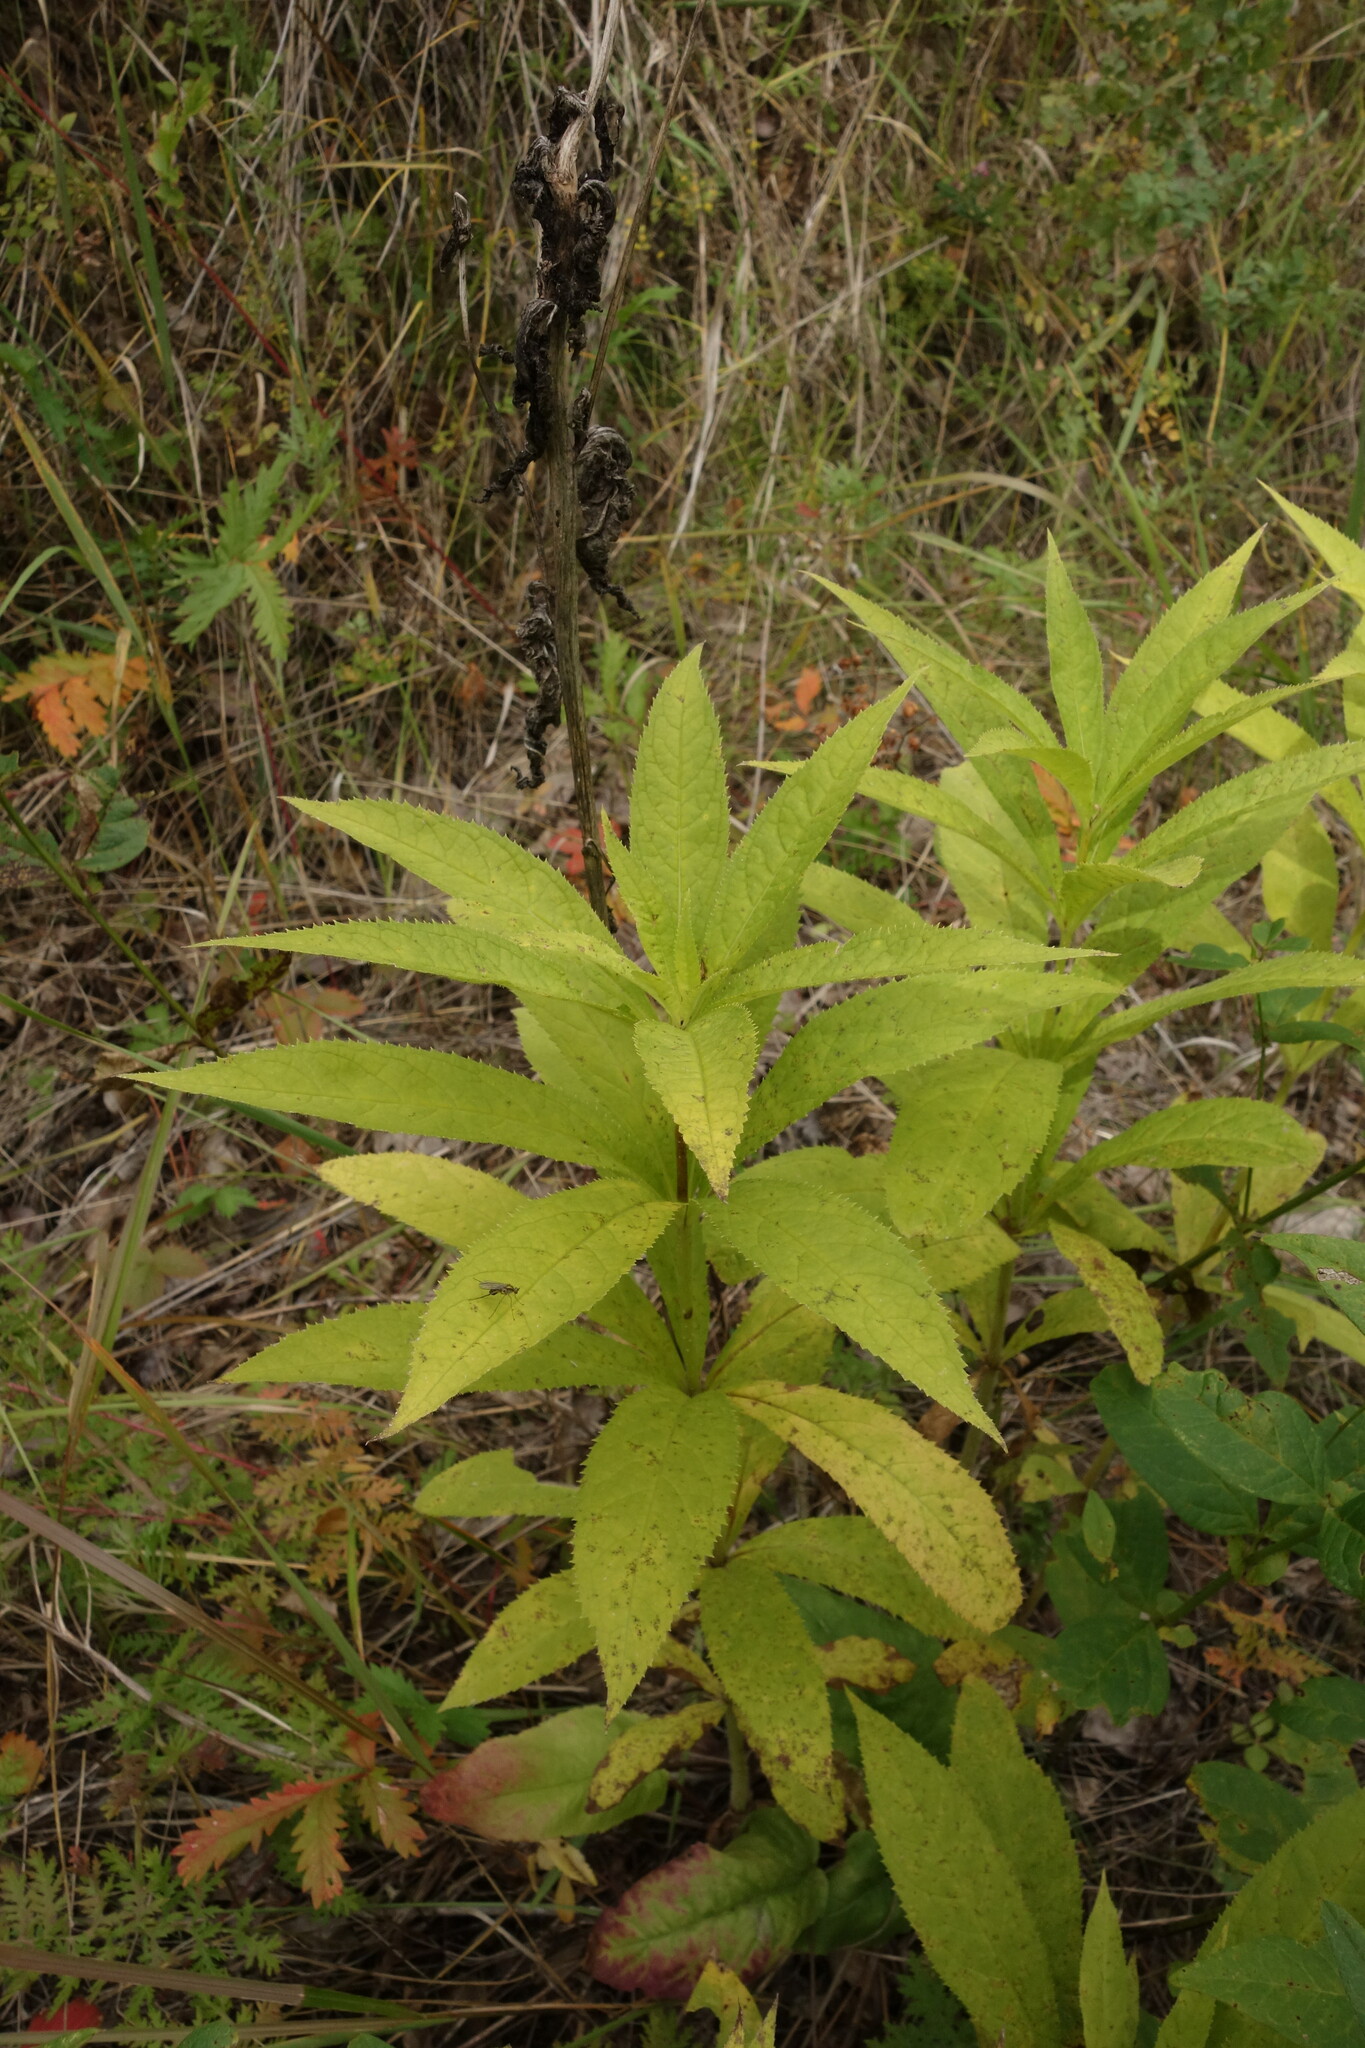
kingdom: Plantae
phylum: Tracheophyta
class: Magnoliopsida
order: Lamiales
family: Plantaginaceae
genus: Veronicastrum
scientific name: Veronicastrum sibiricum
